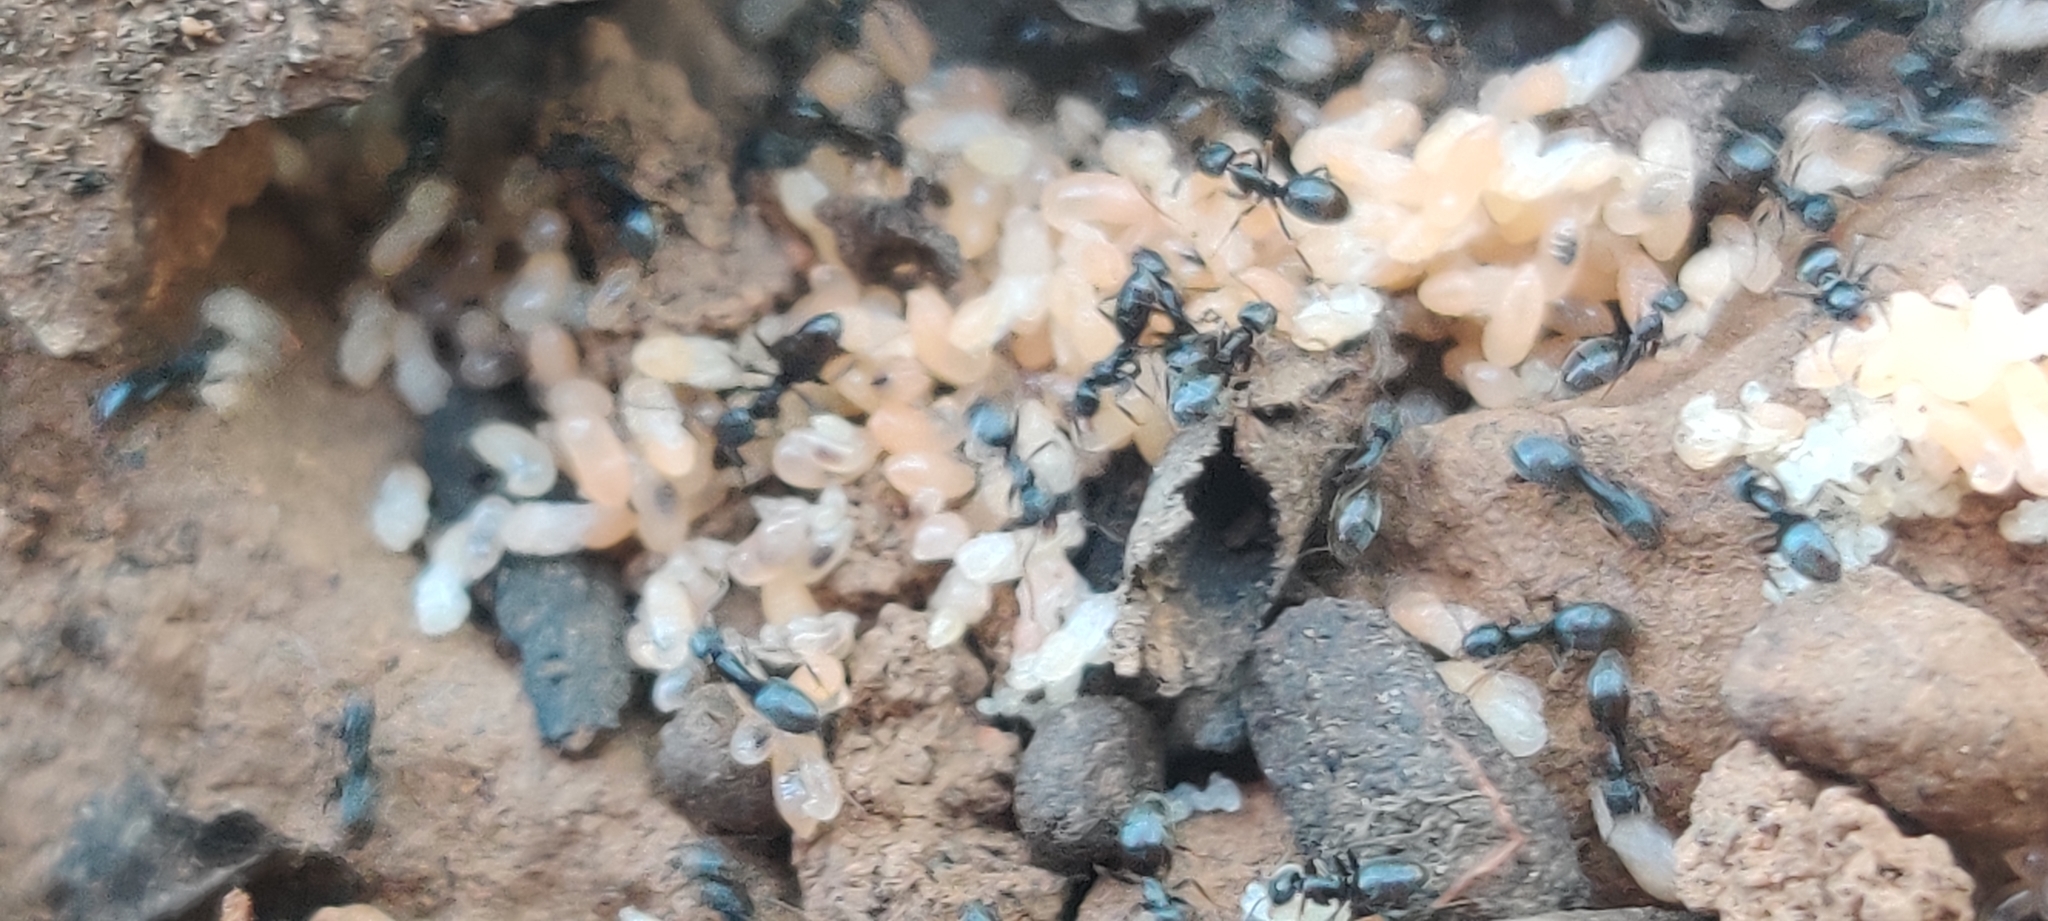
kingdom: Animalia
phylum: Arthropoda
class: Insecta
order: Hymenoptera
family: Formicidae
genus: Tapinoma
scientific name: Tapinoma sessile
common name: Odorous house ant
